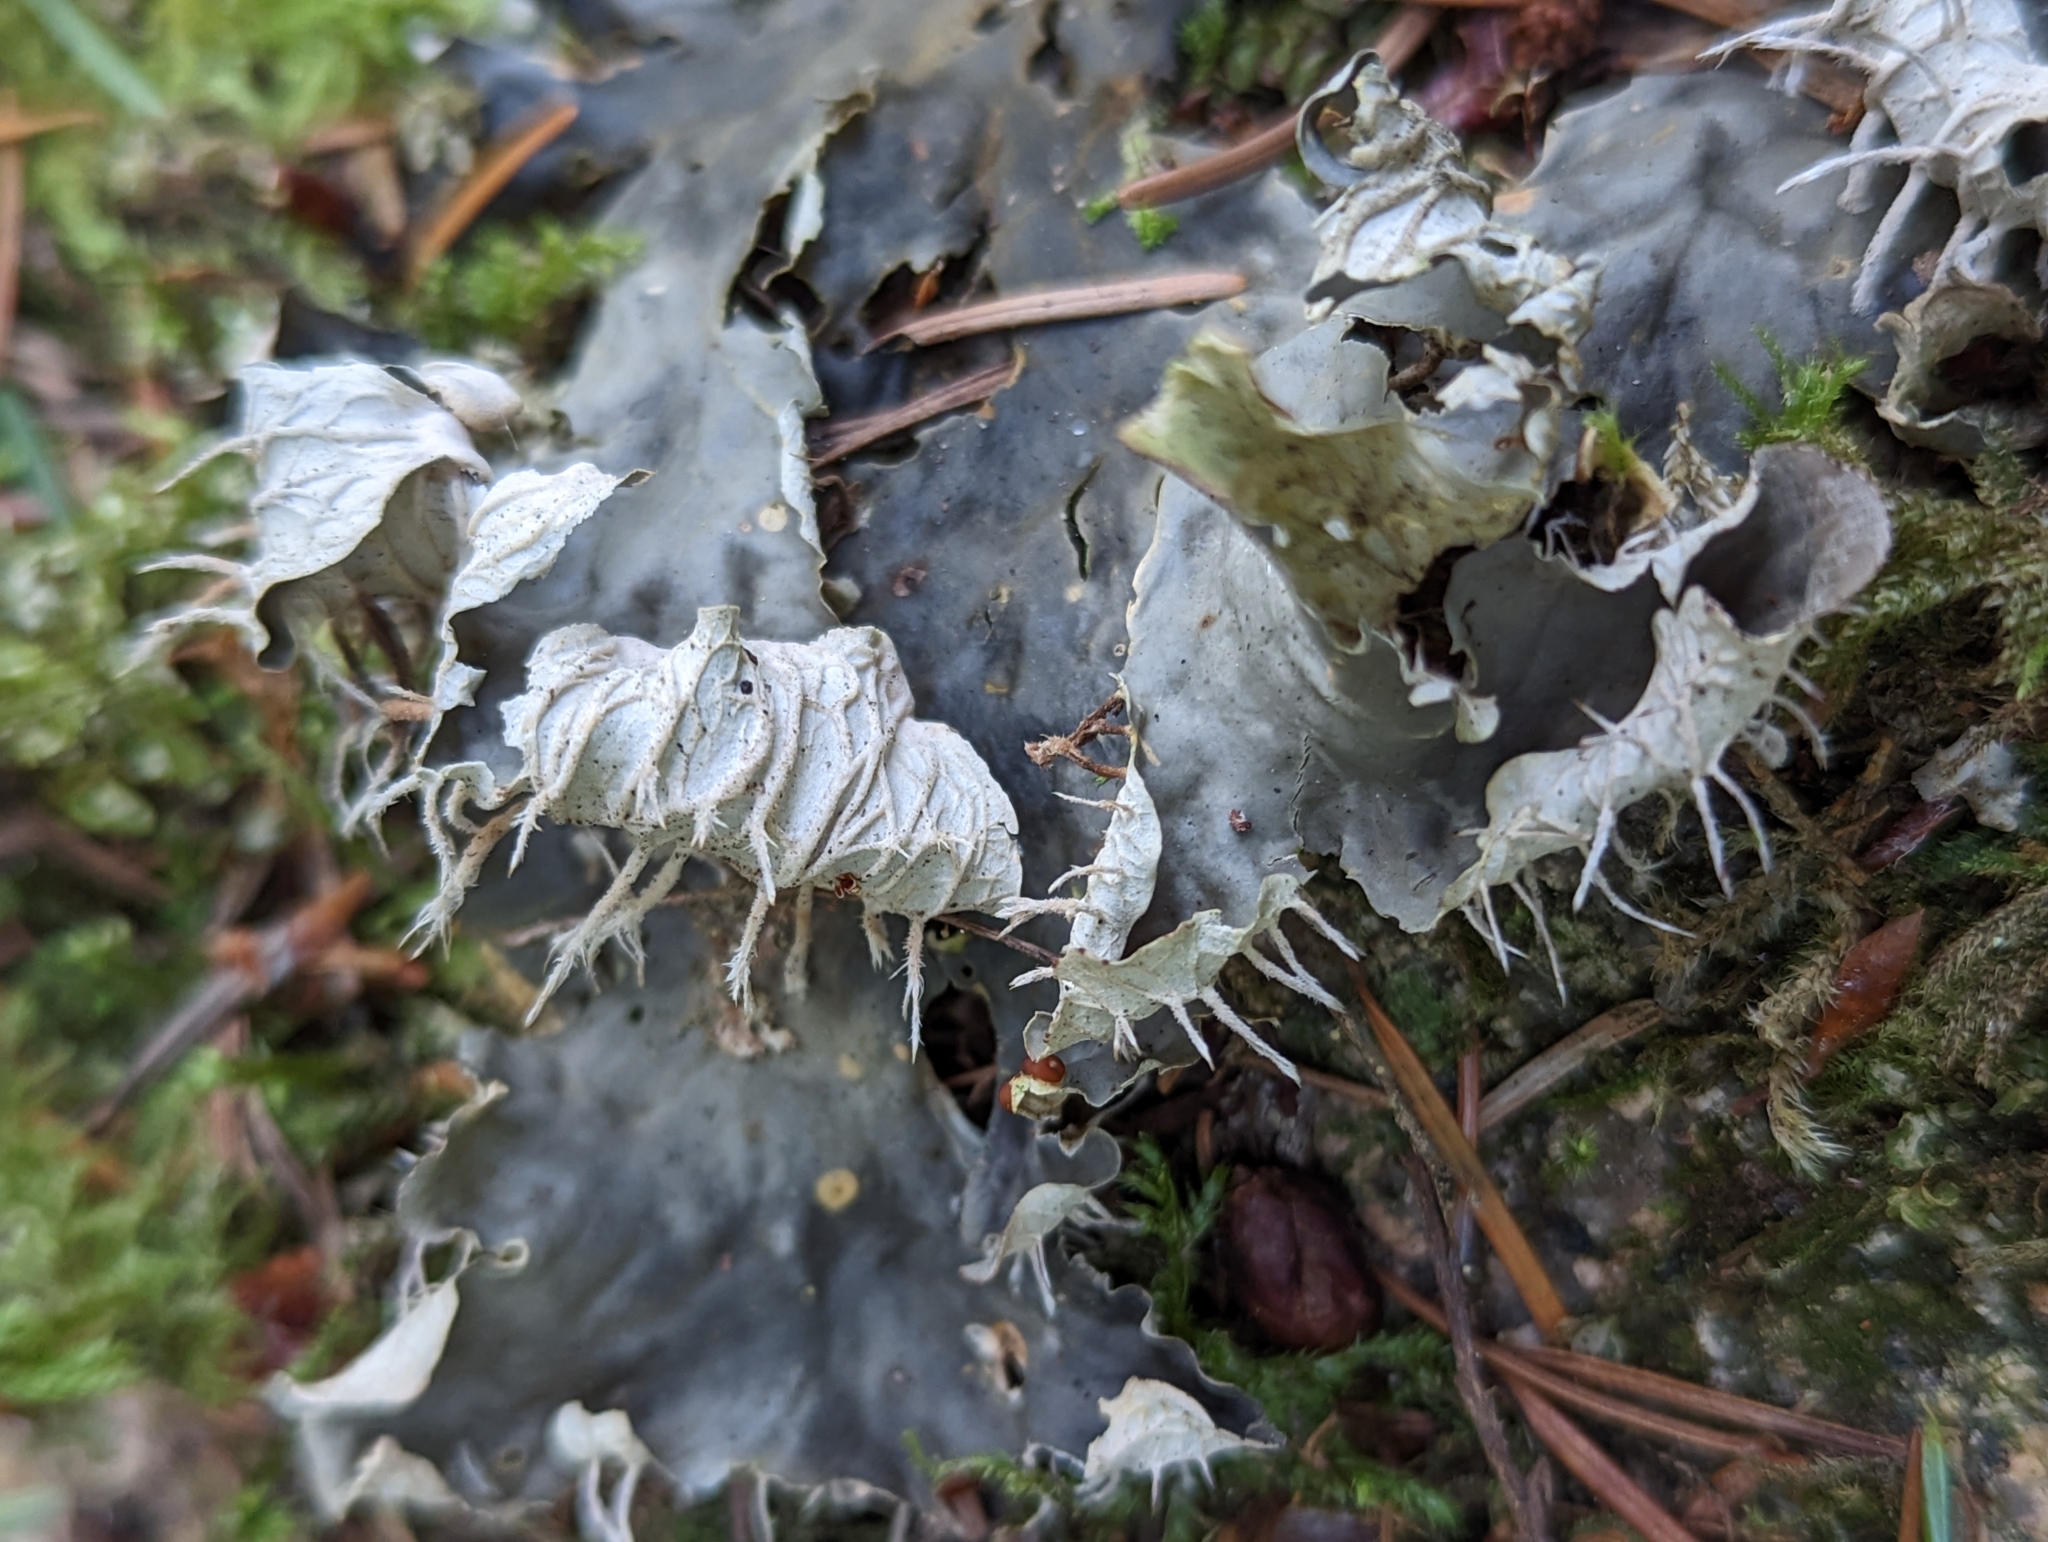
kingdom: Fungi
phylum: Ascomycota
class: Lecanoromycetes
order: Peltigerales
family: Peltigeraceae
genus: Peltigera
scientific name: Peltigera canina
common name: Dog pelt lichen
